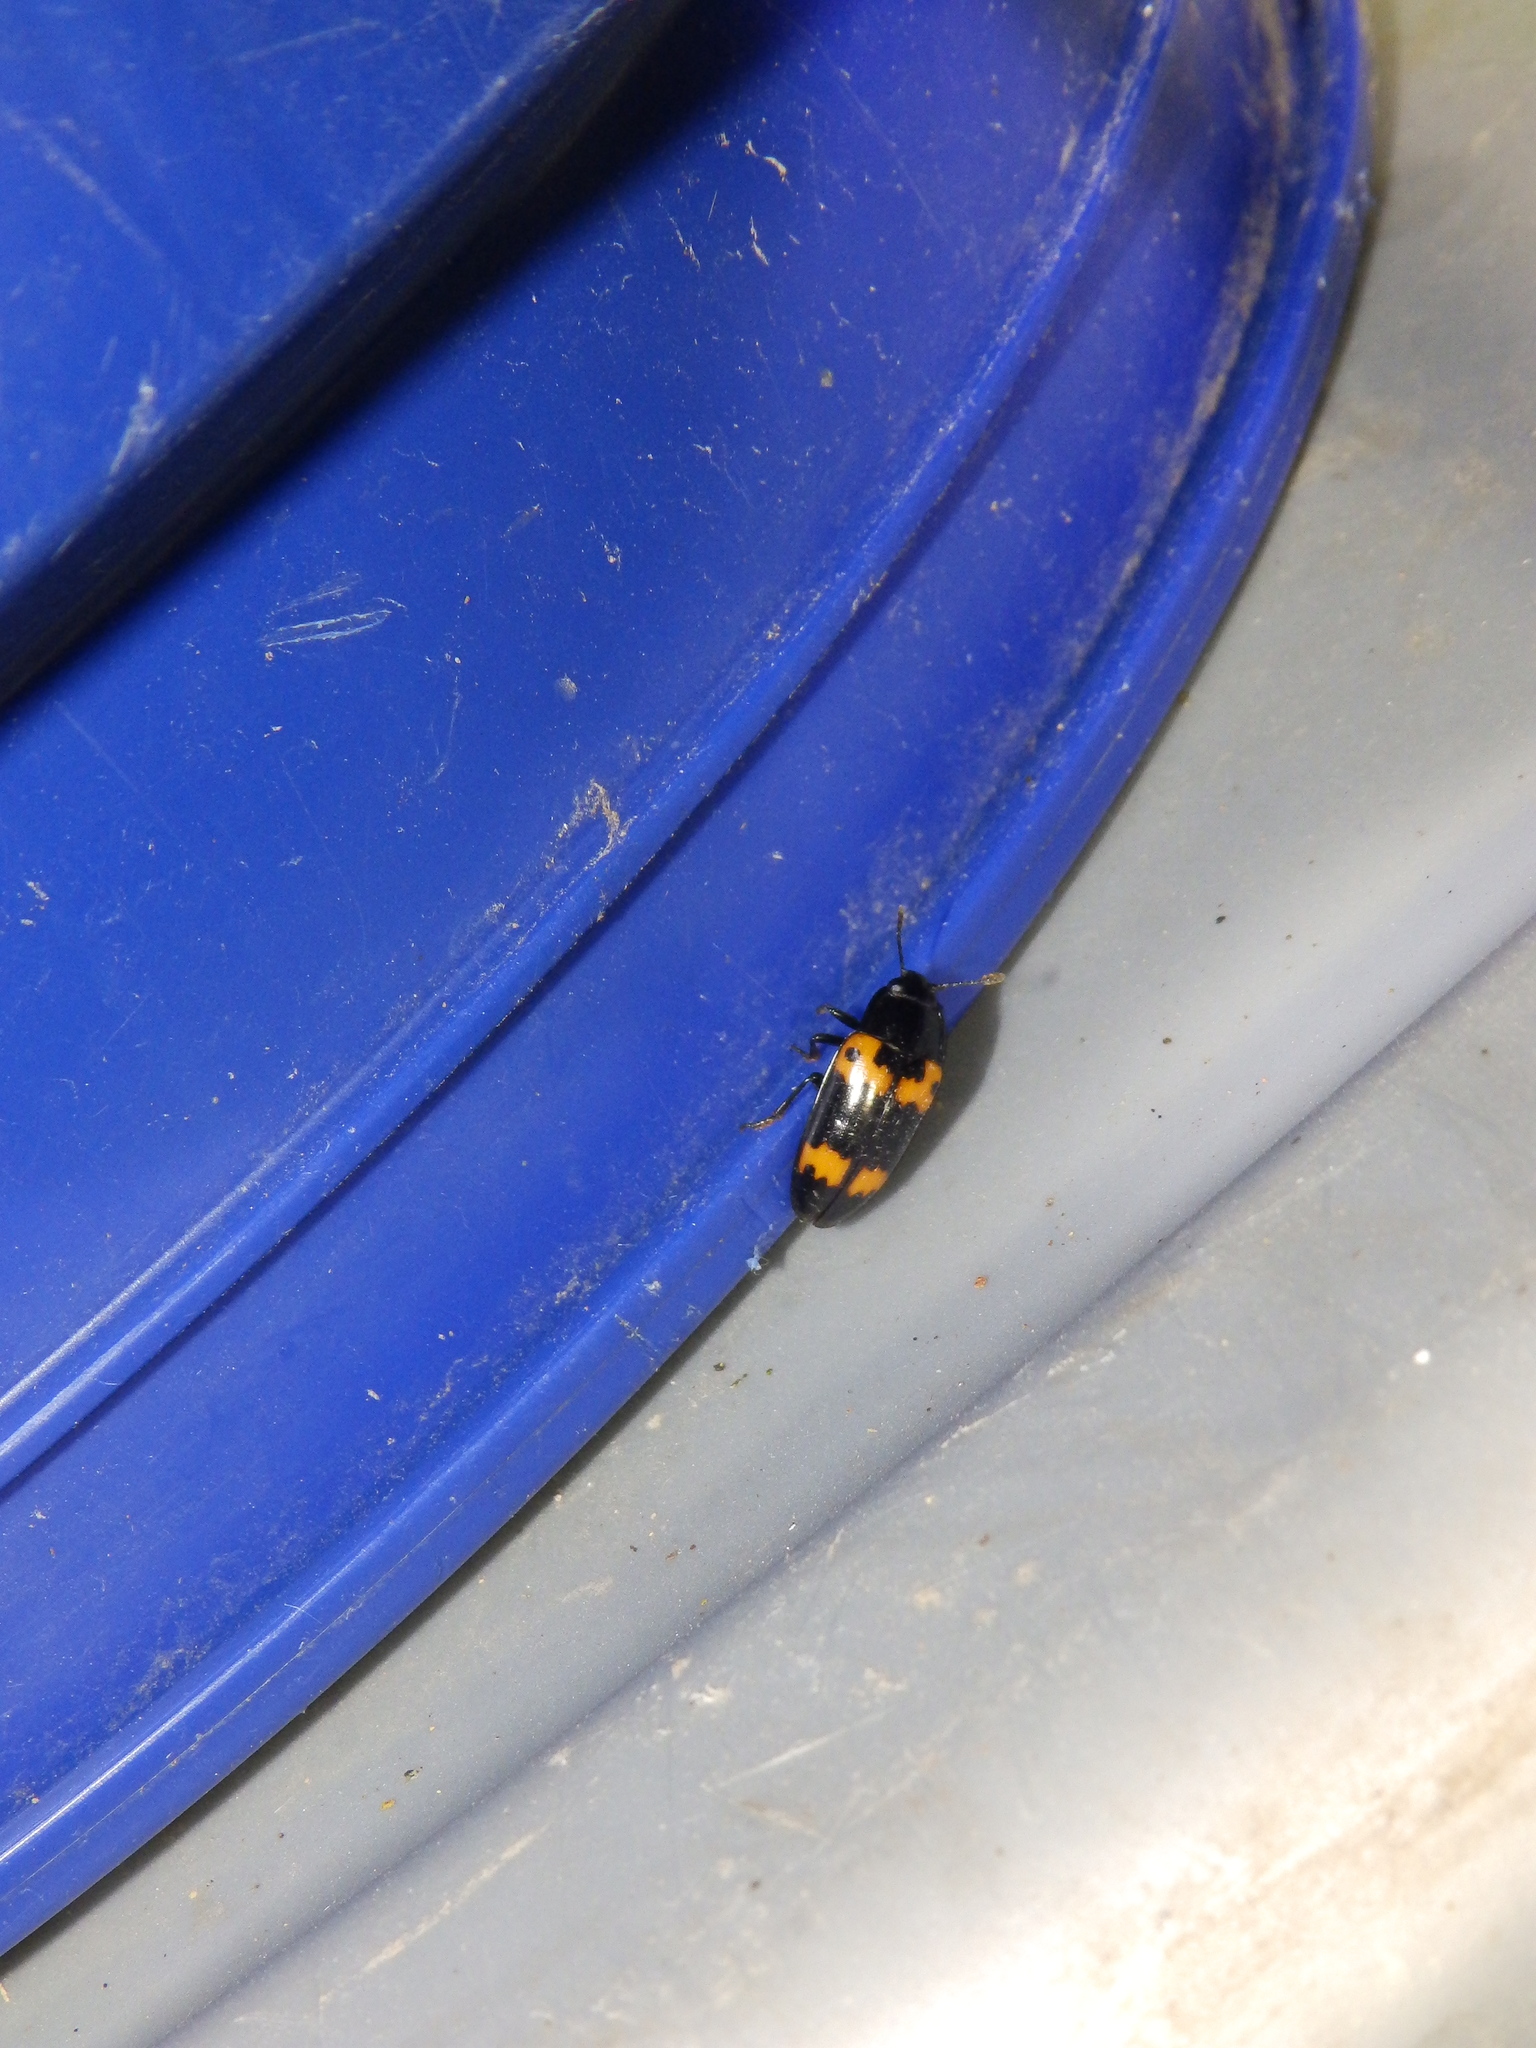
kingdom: Animalia
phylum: Arthropoda
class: Insecta
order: Coleoptera
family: Erotylidae
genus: Megalodacne
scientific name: Megalodacne fasciata
